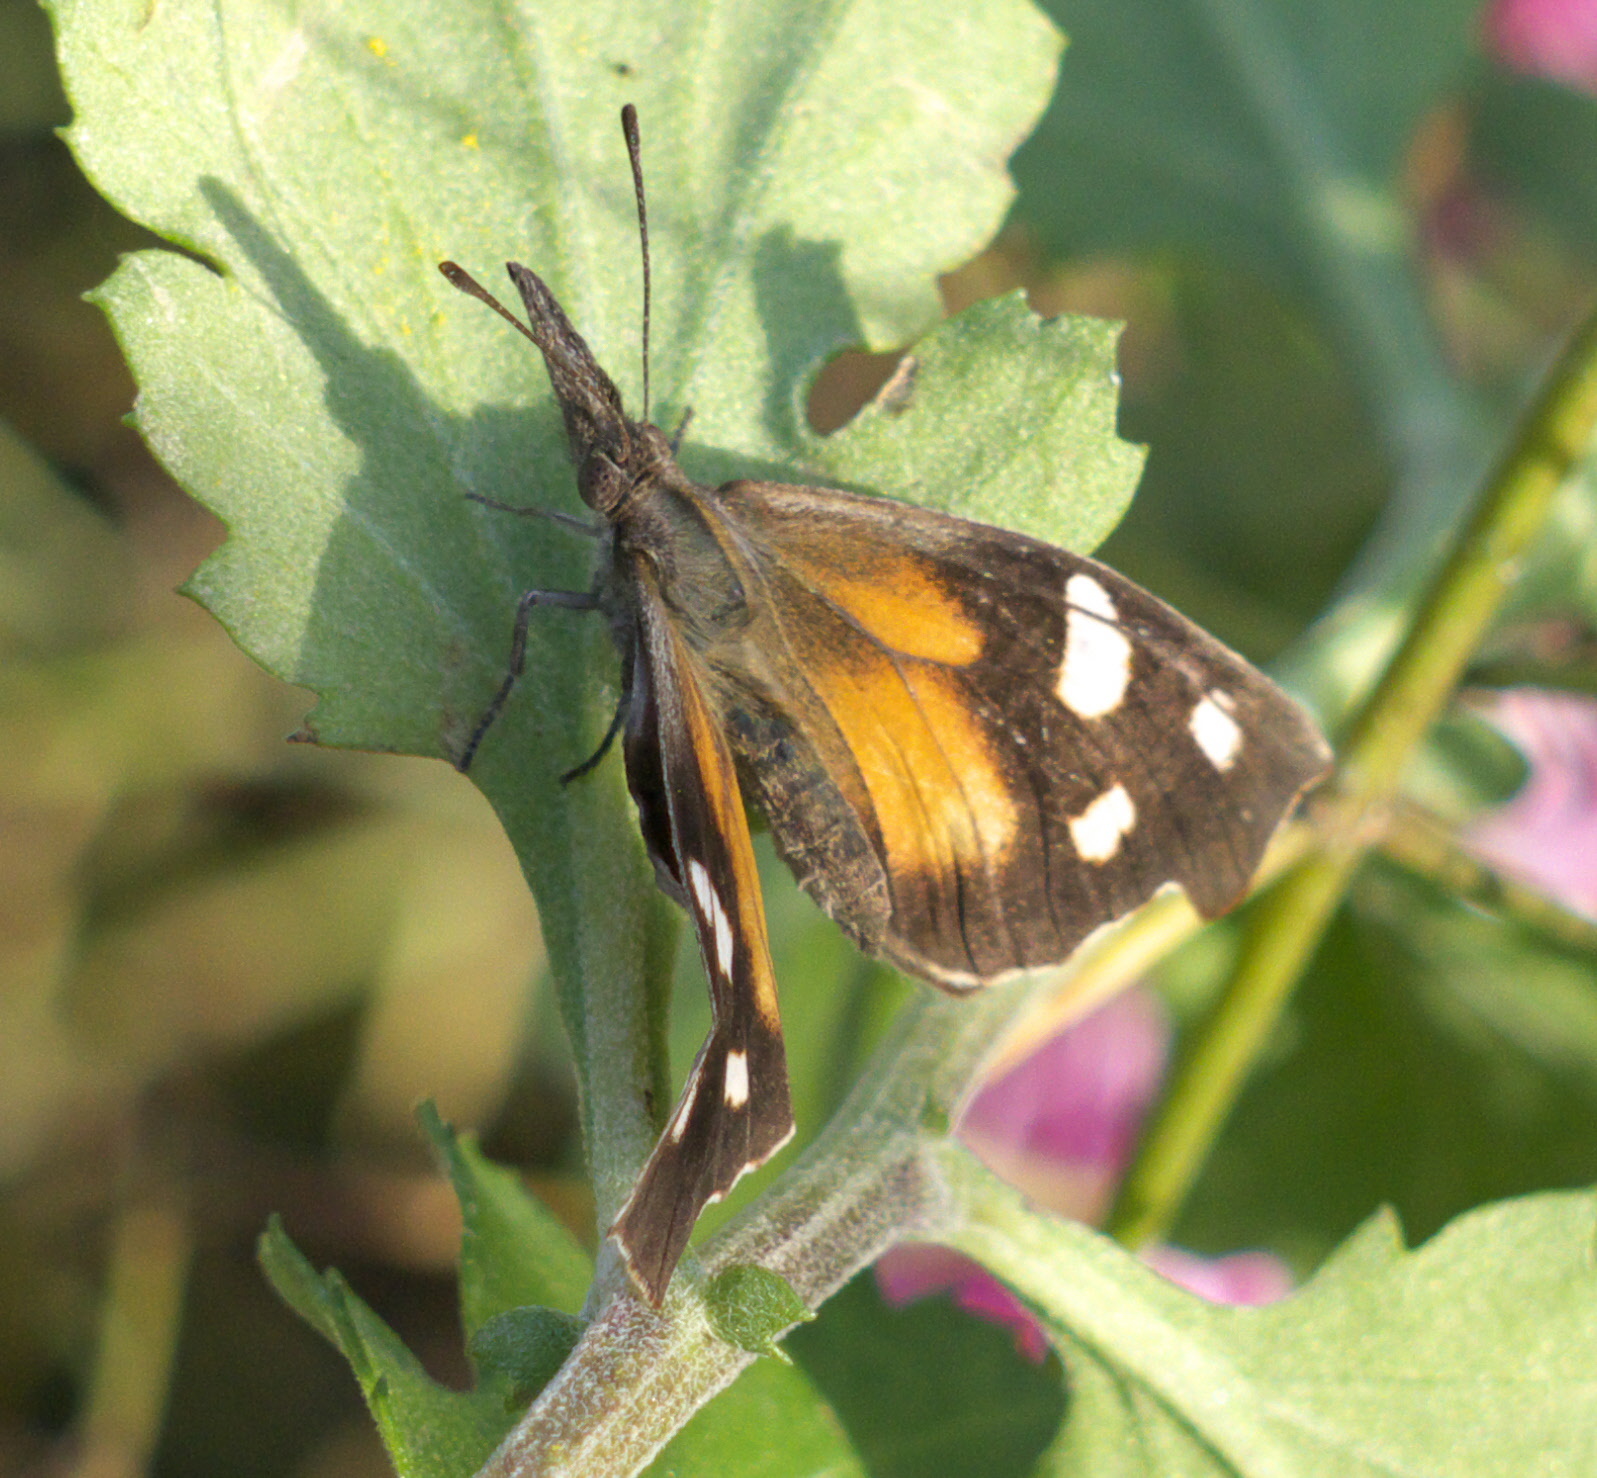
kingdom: Animalia
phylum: Arthropoda
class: Insecta
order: Lepidoptera
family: Nymphalidae
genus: Libytheana
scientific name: Libytheana carinenta
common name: American snout
